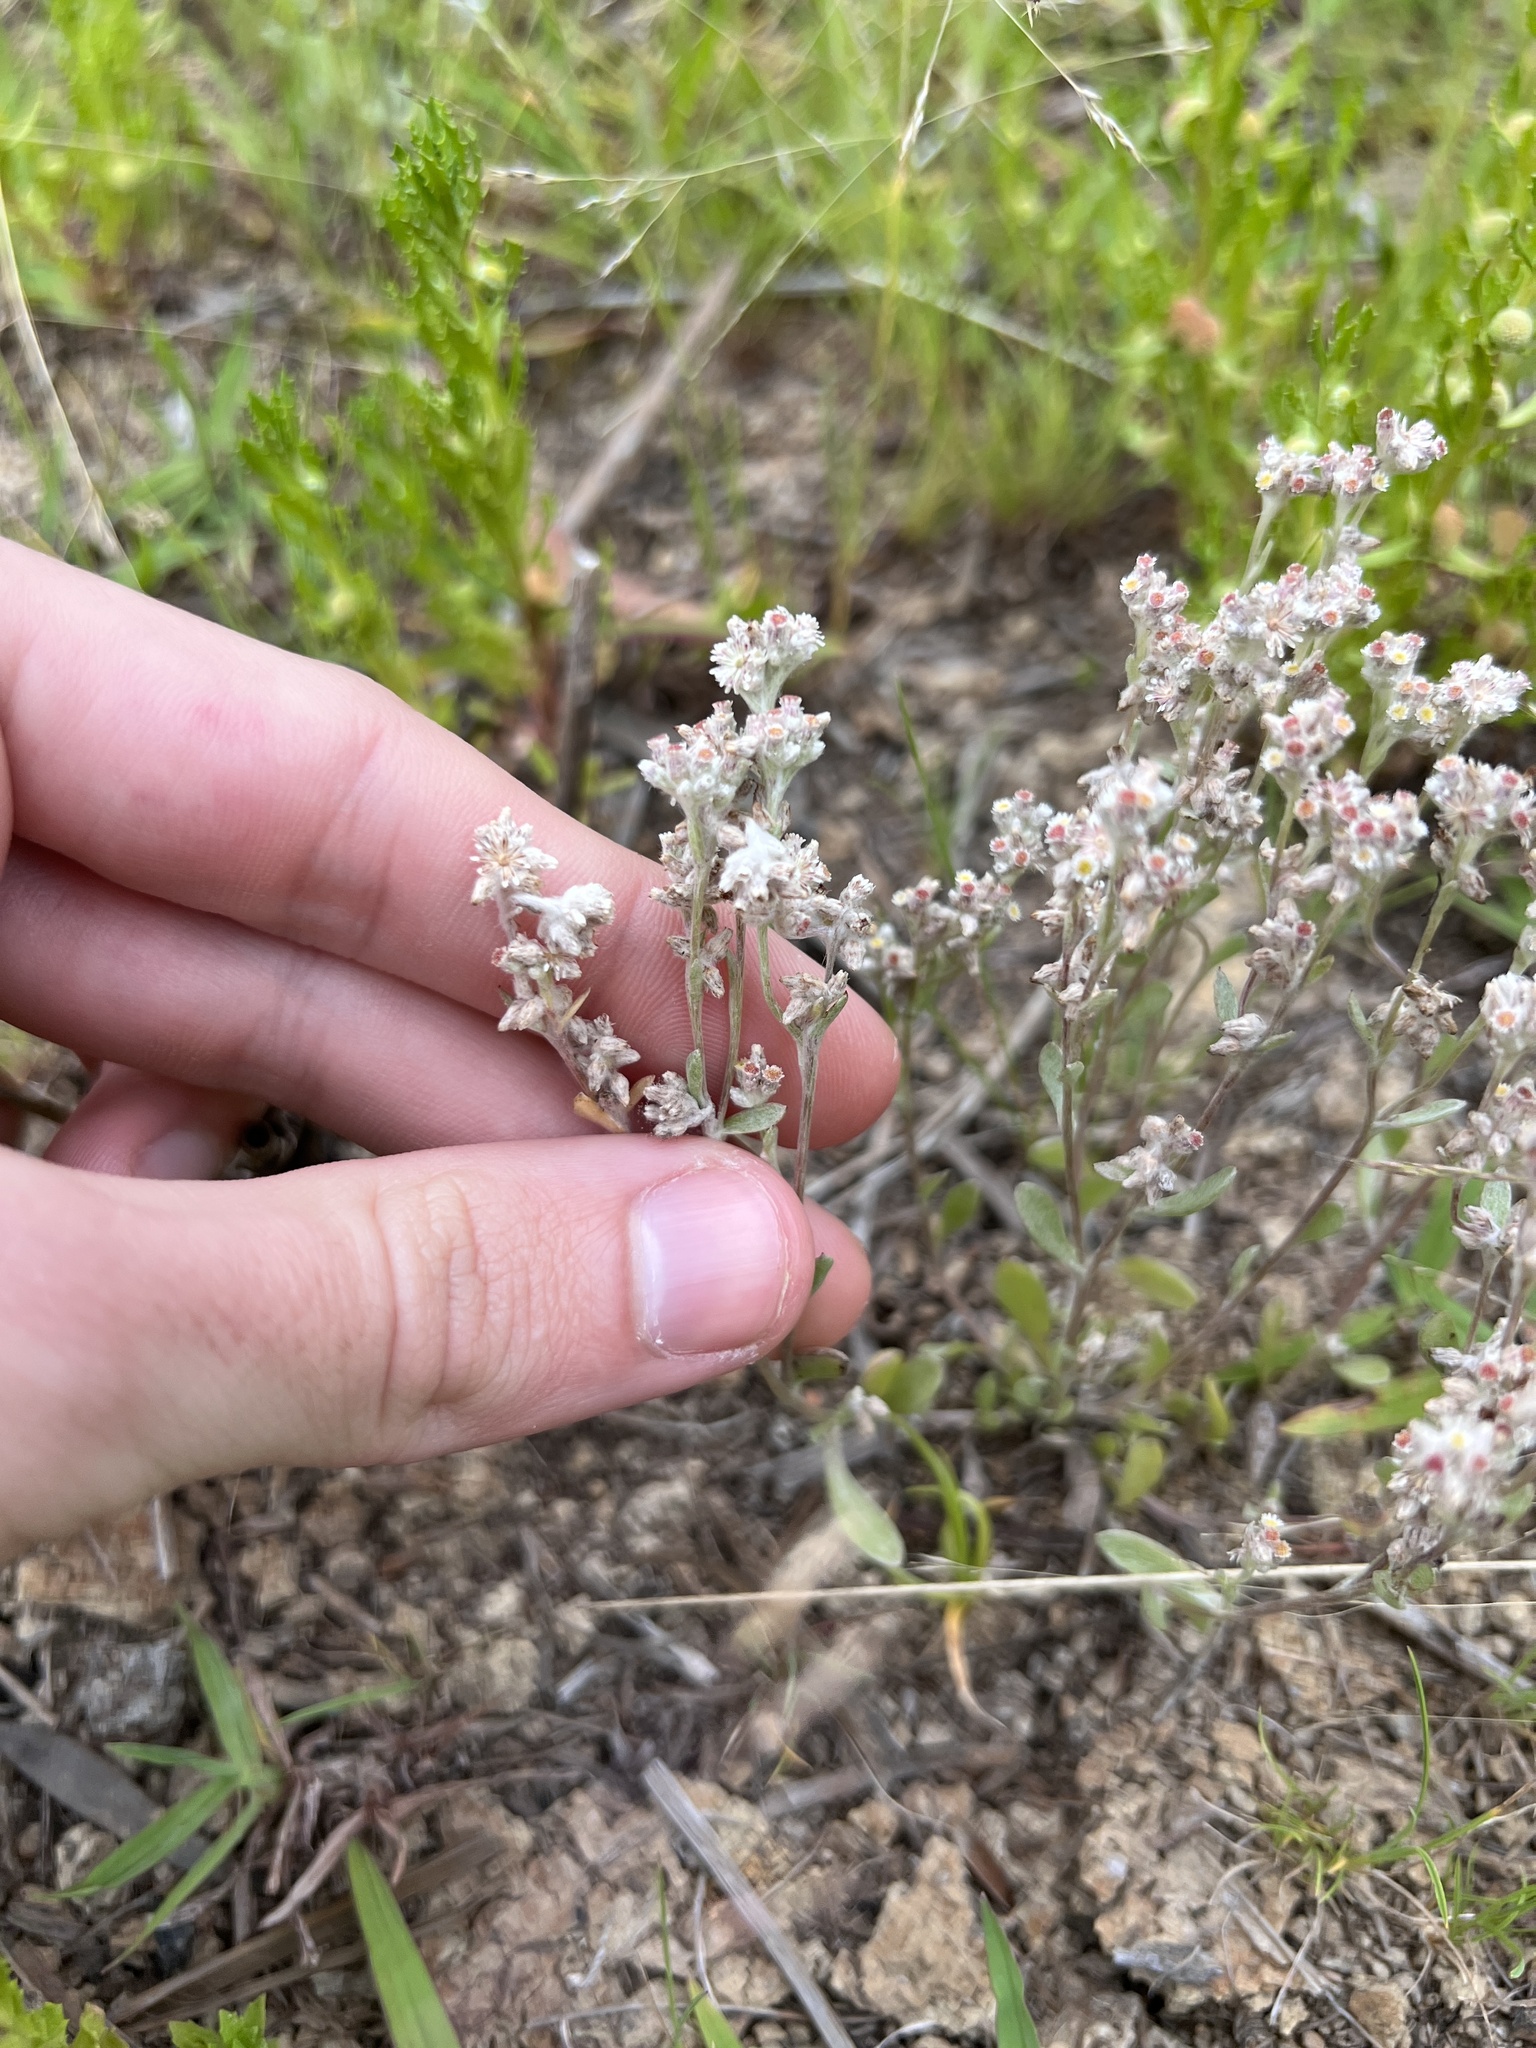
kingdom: Plantae
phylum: Tracheophyta
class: Magnoliopsida
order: Asterales
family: Asteraceae
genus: Vellereophyton
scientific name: Vellereophyton dealbatum
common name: White-cudweed
